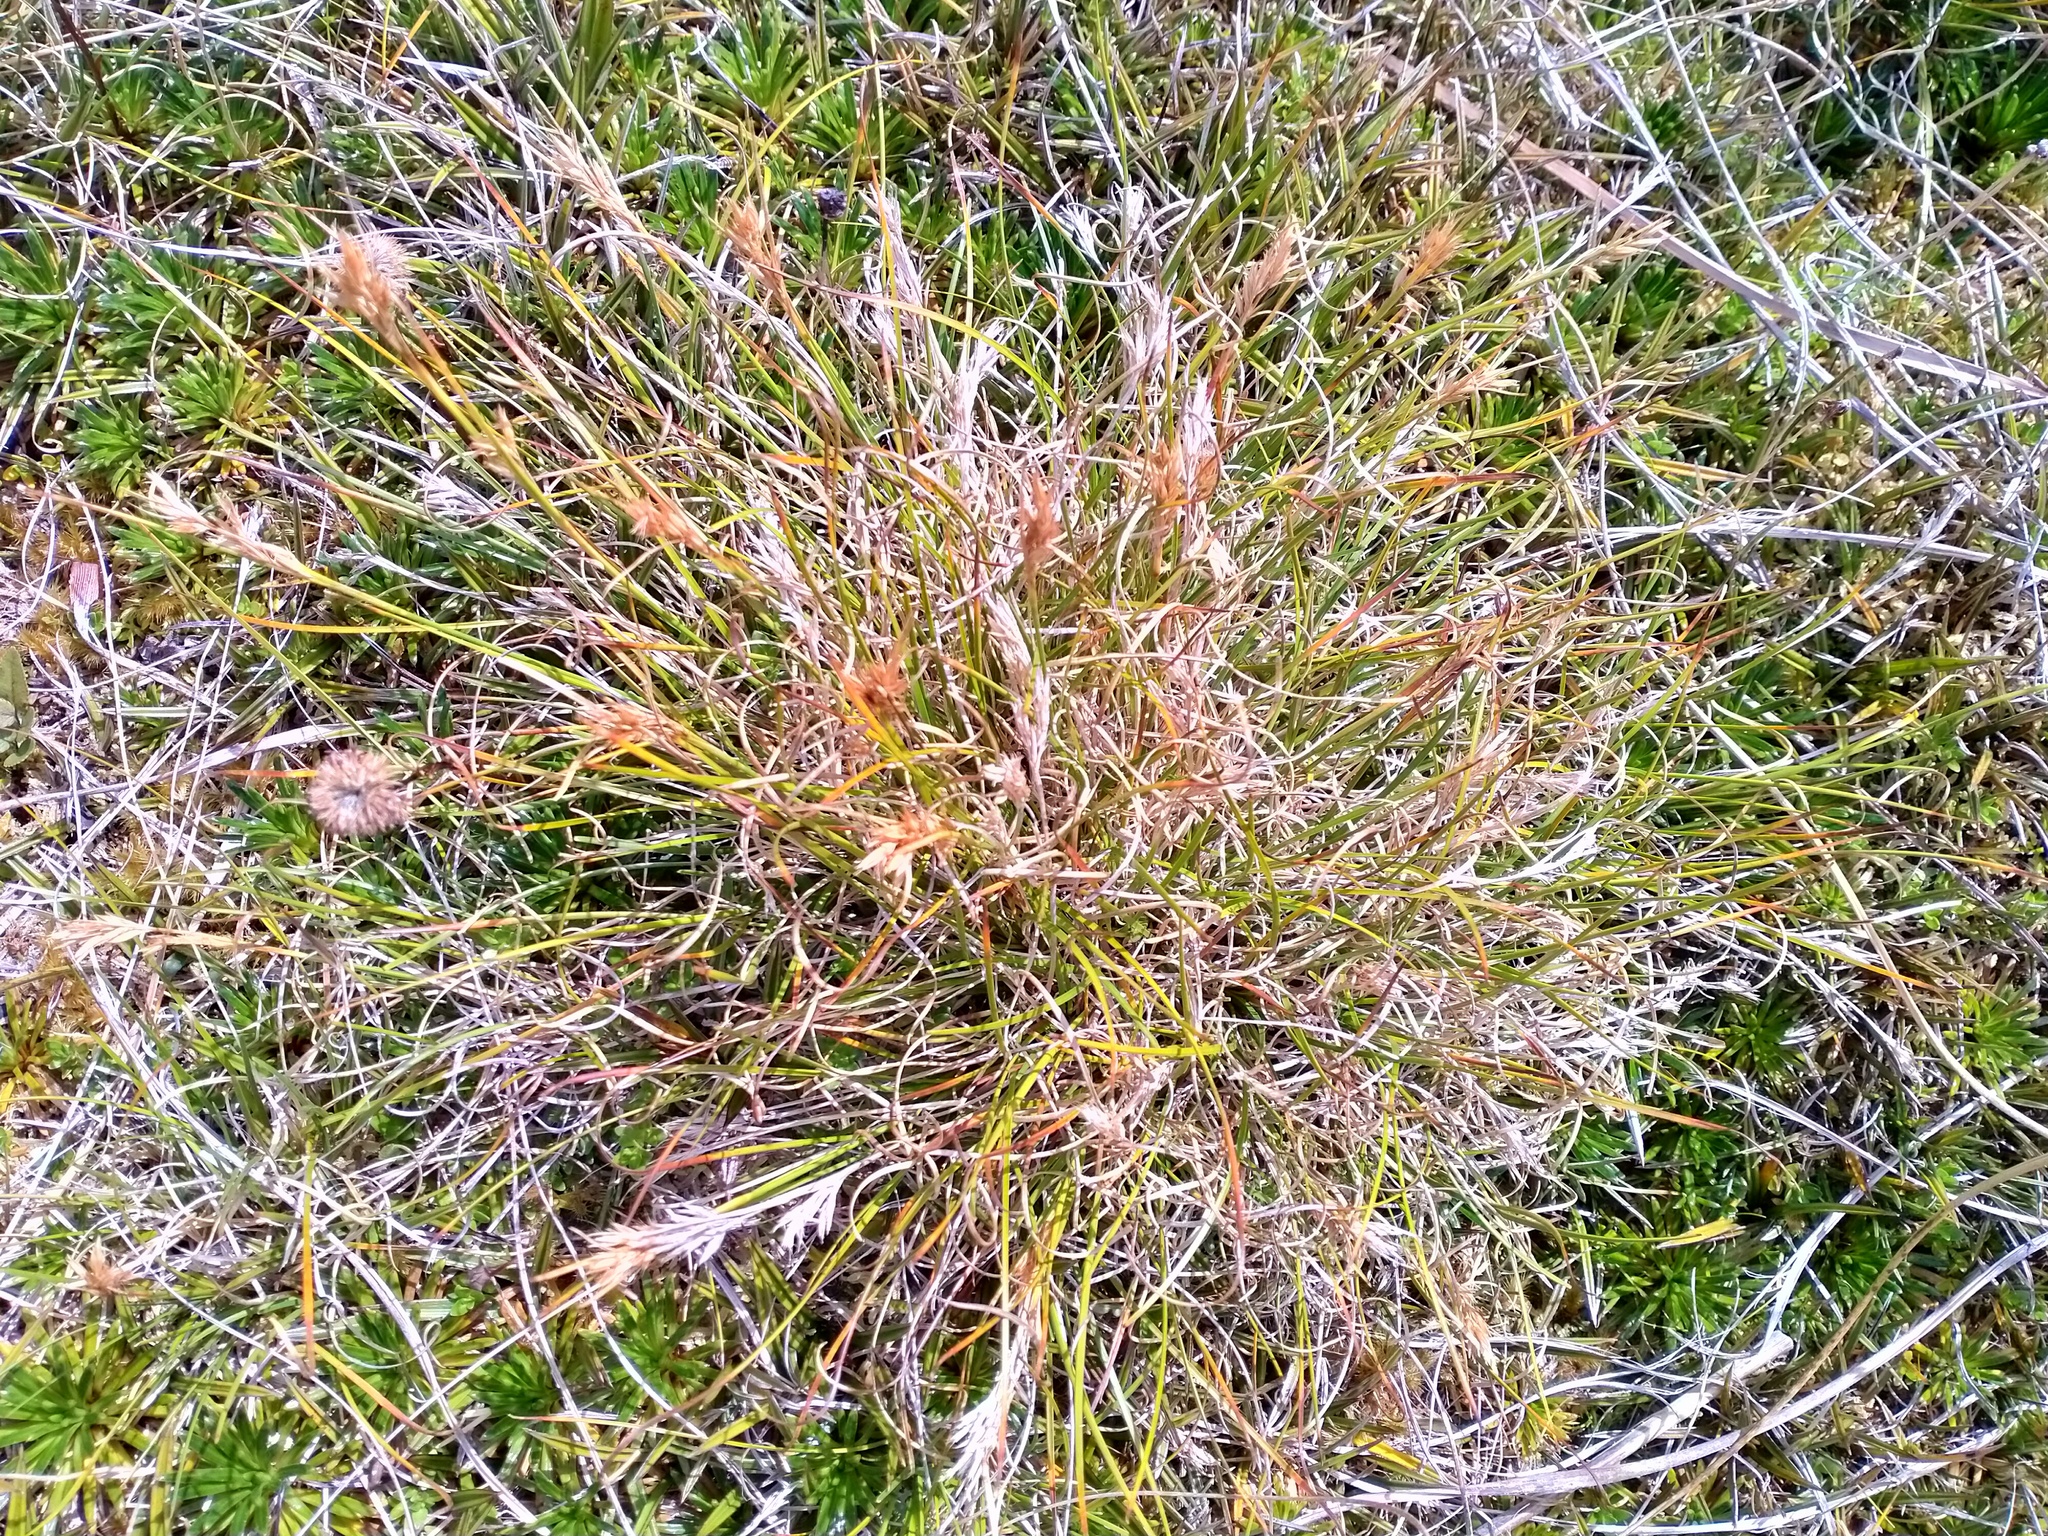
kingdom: Plantae
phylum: Tracheophyta
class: Liliopsida
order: Poales
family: Cyperaceae
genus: Carpha
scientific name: Carpha alpina
